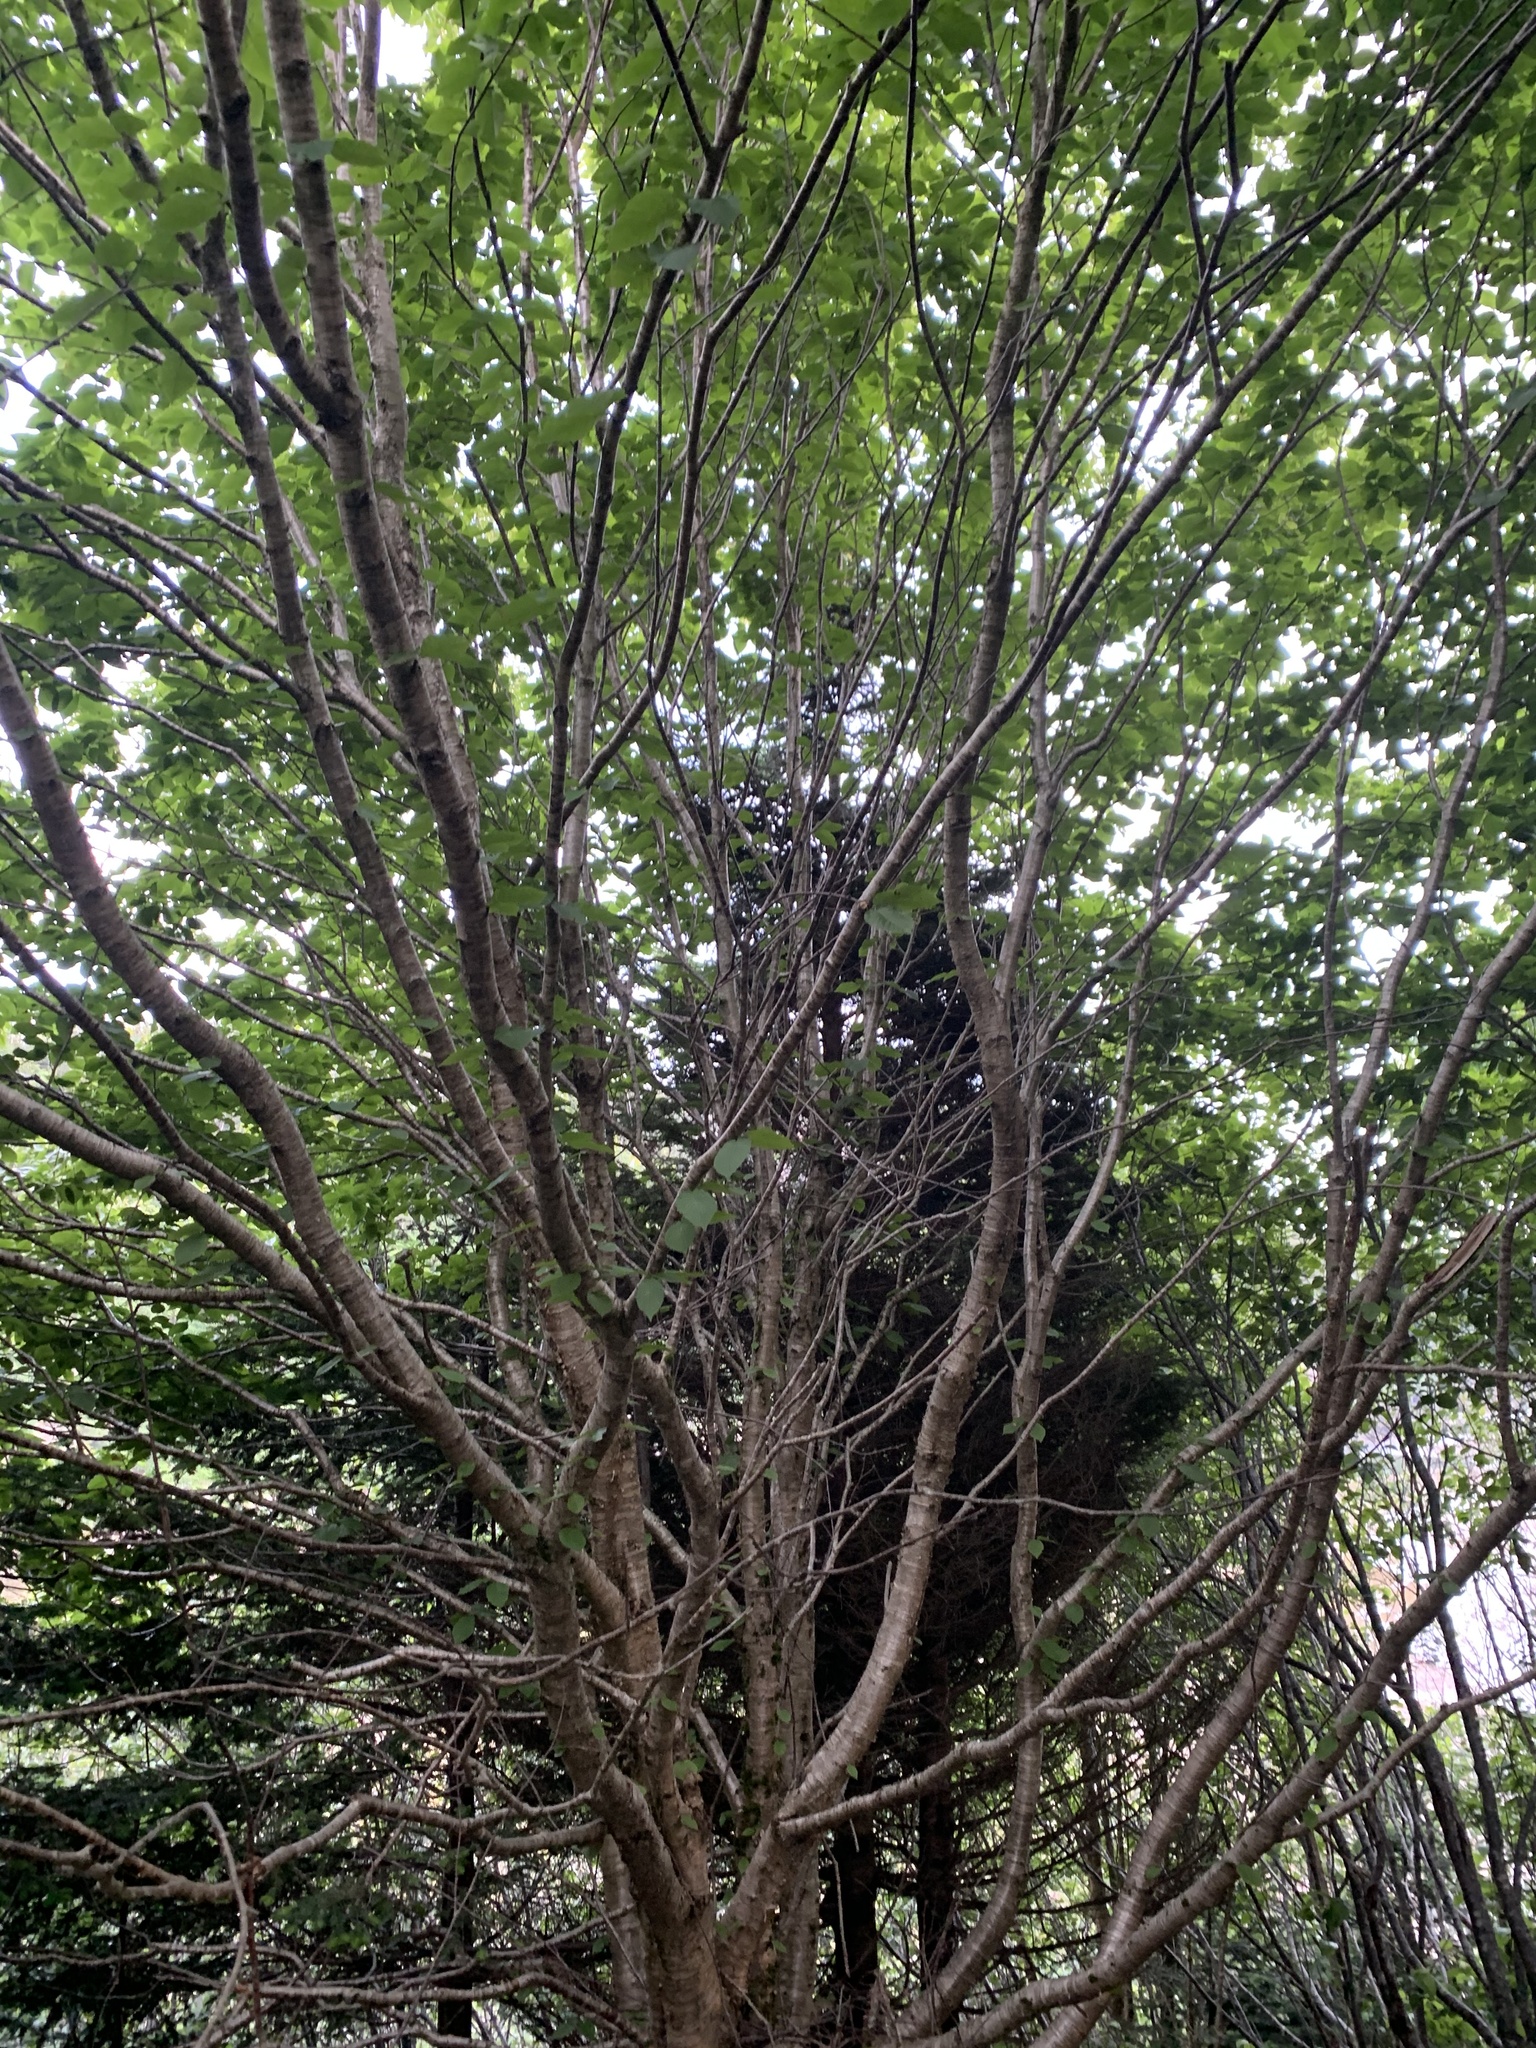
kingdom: Plantae
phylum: Tracheophyta
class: Magnoliopsida
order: Fagales
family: Betulaceae
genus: Betula
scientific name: Betula alleghaniensis
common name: Yellow birch
